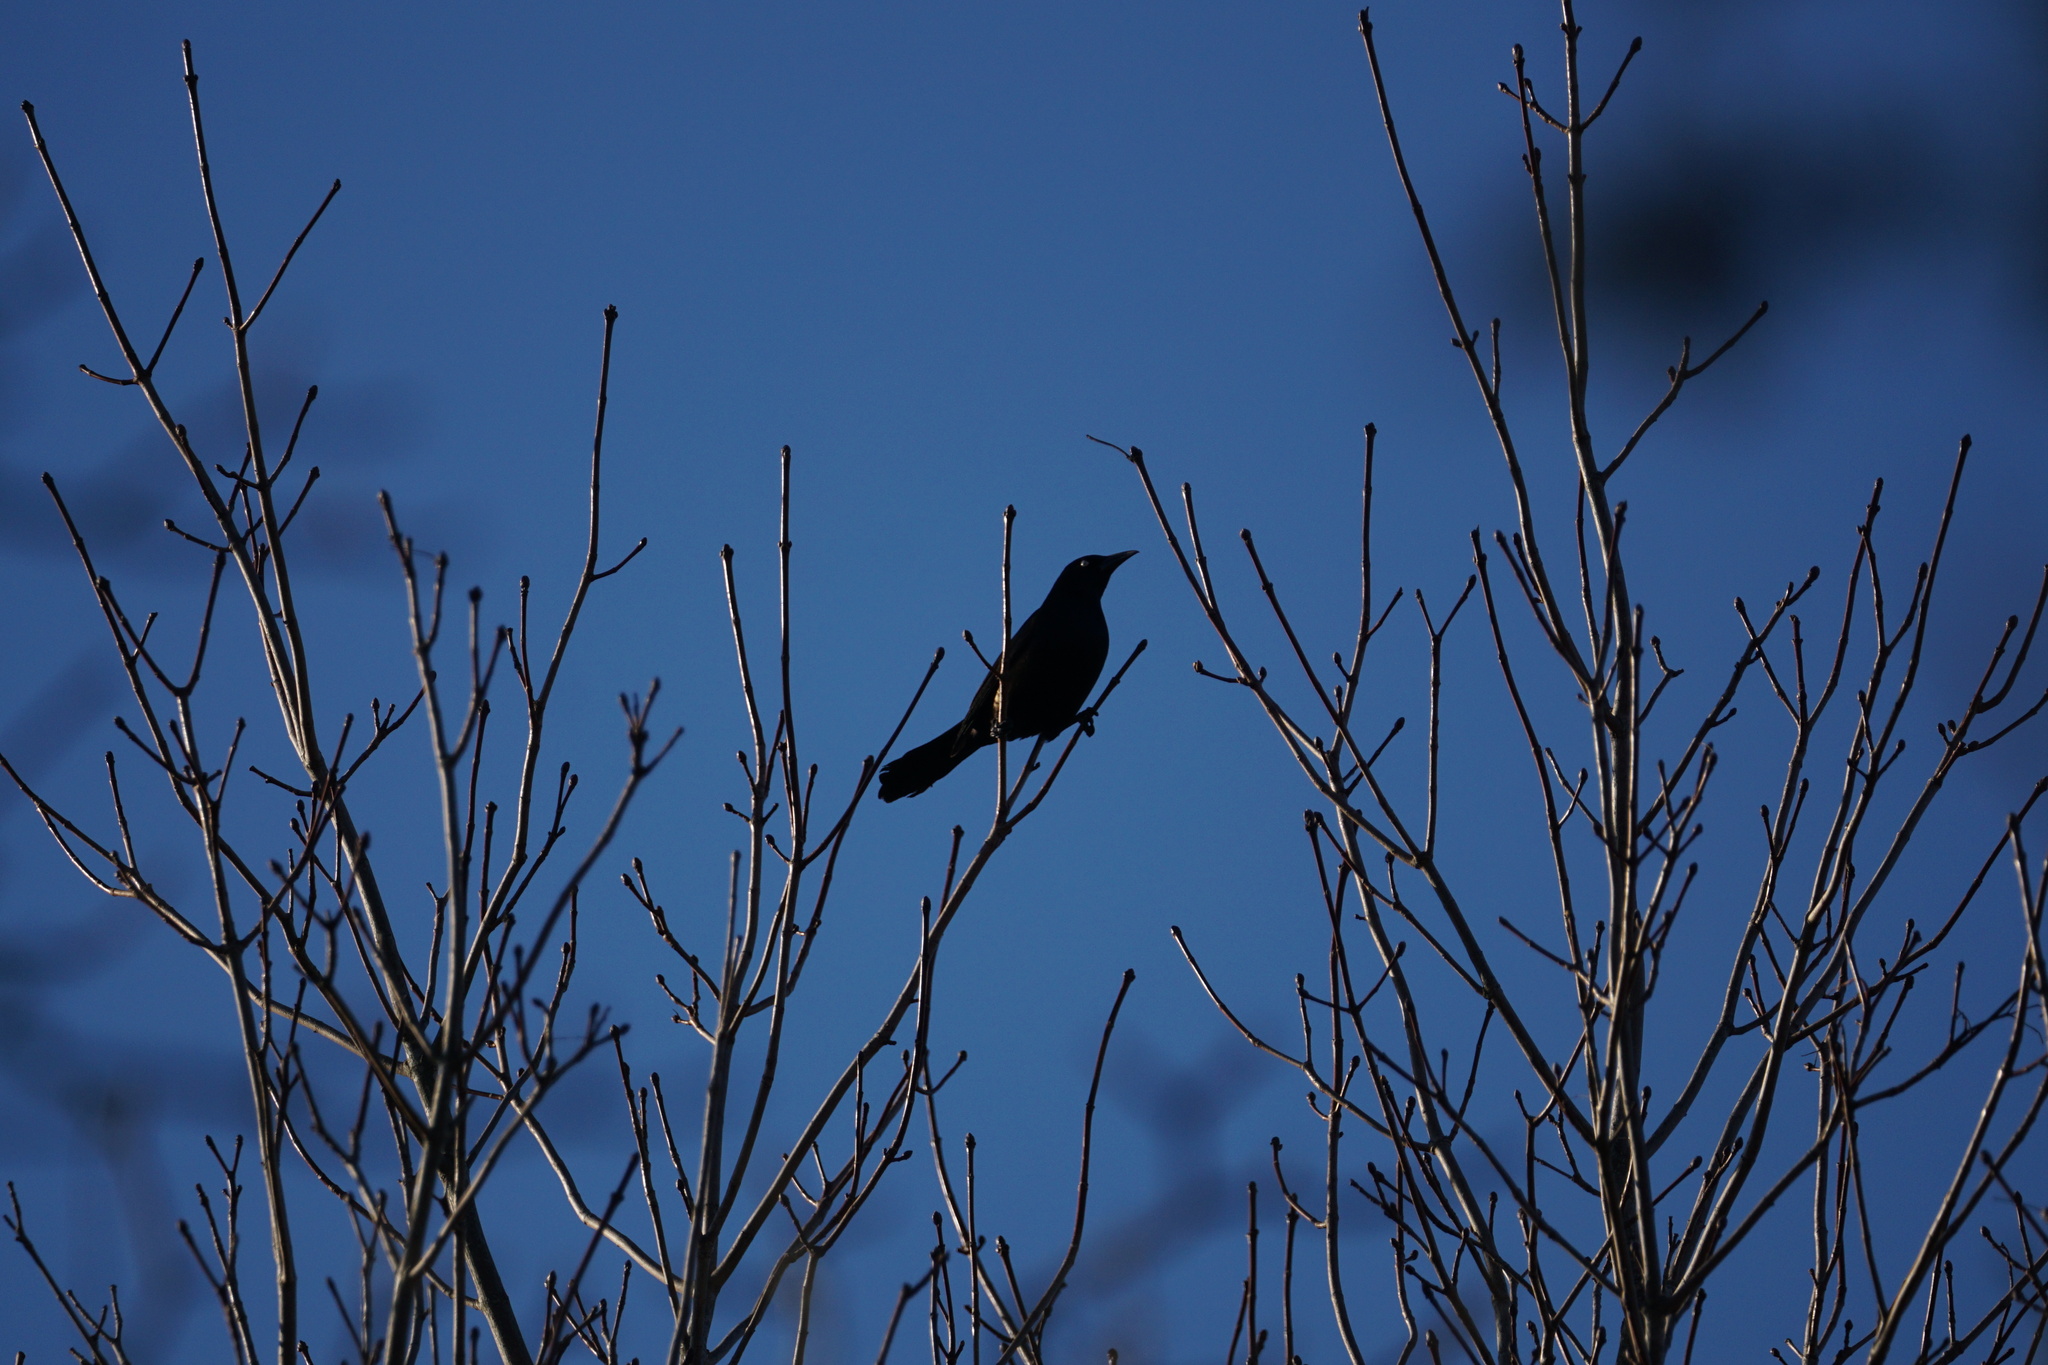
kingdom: Animalia
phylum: Chordata
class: Aves
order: Passeriformes
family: Icteridae
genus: Quiscalus
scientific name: Quiscalus quiscula
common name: Common grackle
